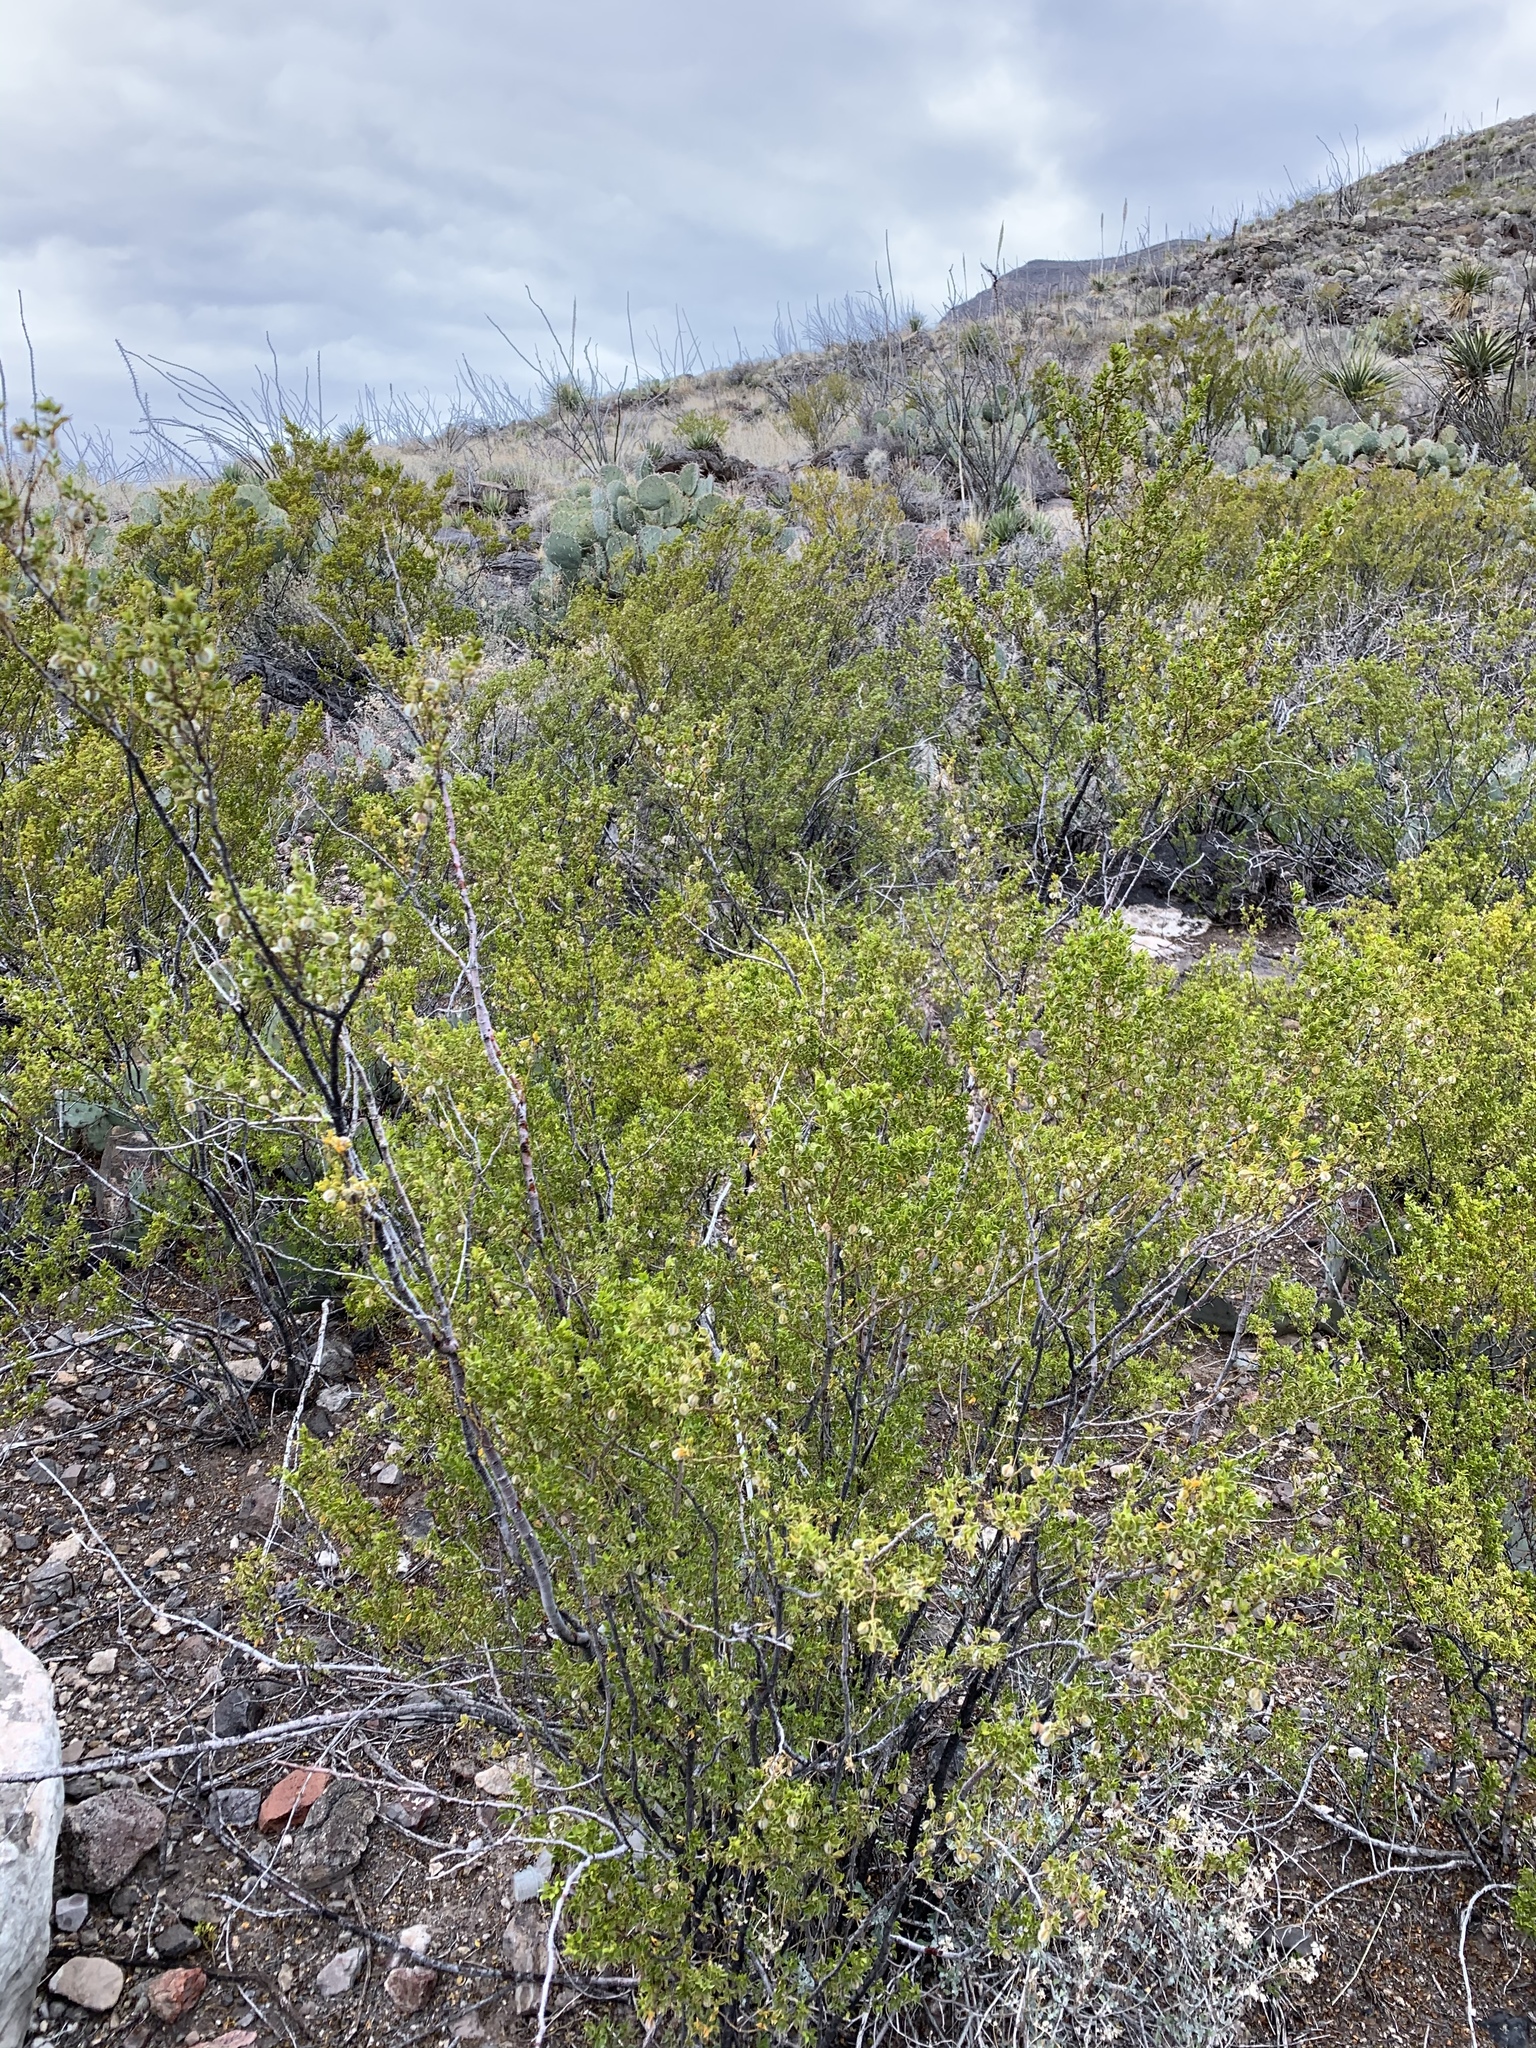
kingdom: Plantae
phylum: Tracheophyta
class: Magnoliopsida
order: Zygophyllales
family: Zygophyllaceae
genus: Larrea
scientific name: Larrea tridentata
